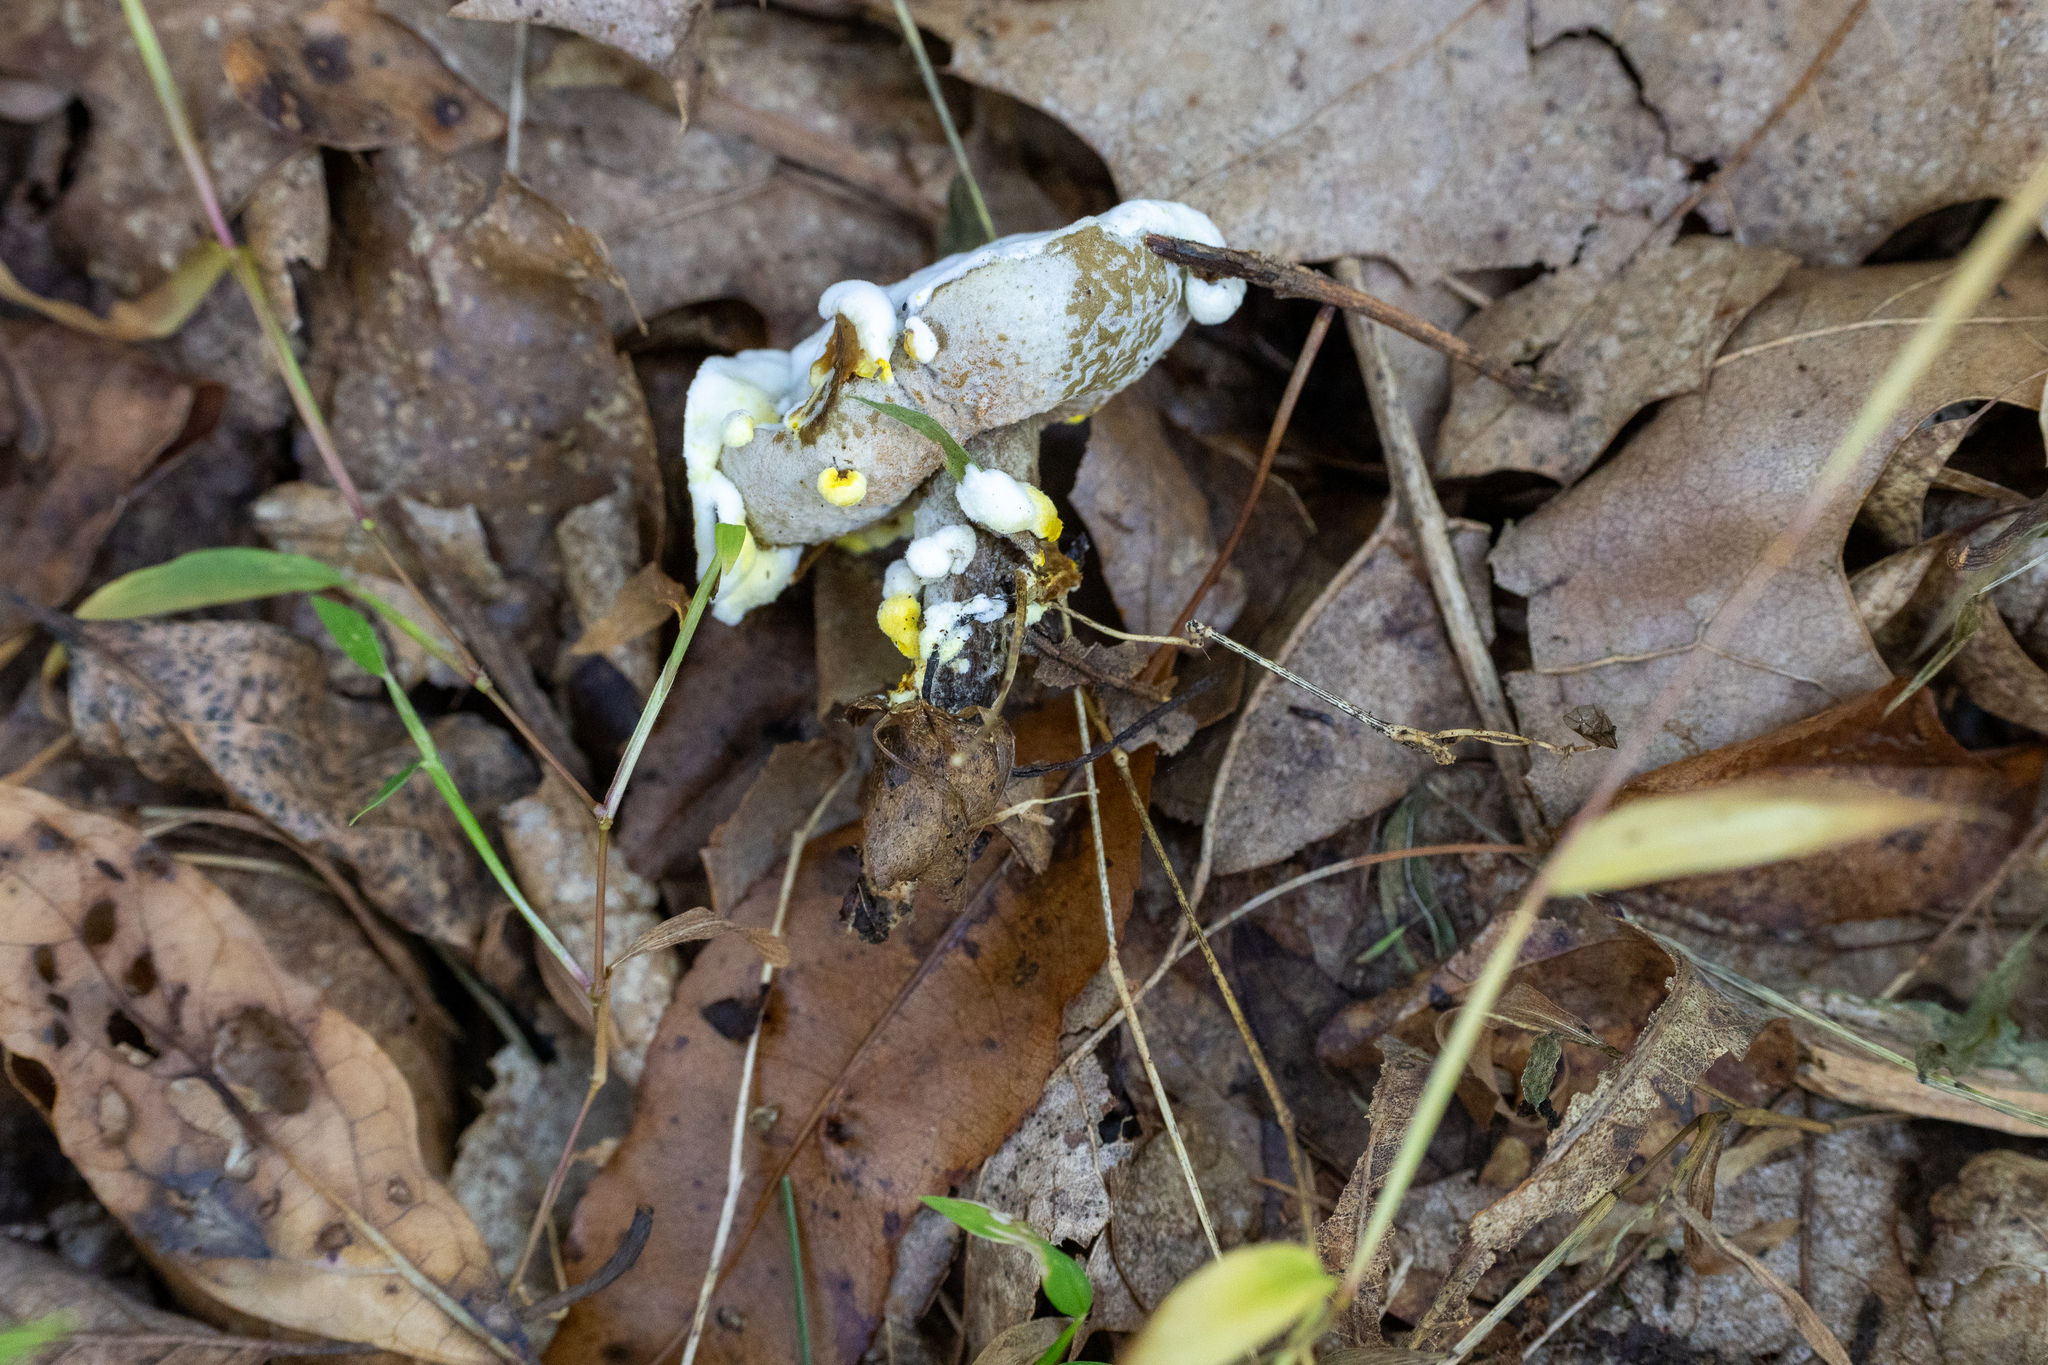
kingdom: Fungi
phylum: Ascomycota
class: Sordariomycetes
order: Hypocreales
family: Hypocreaceae
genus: Hypomyces
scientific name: Hypomyces chrysospermus
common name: Bolete mould
